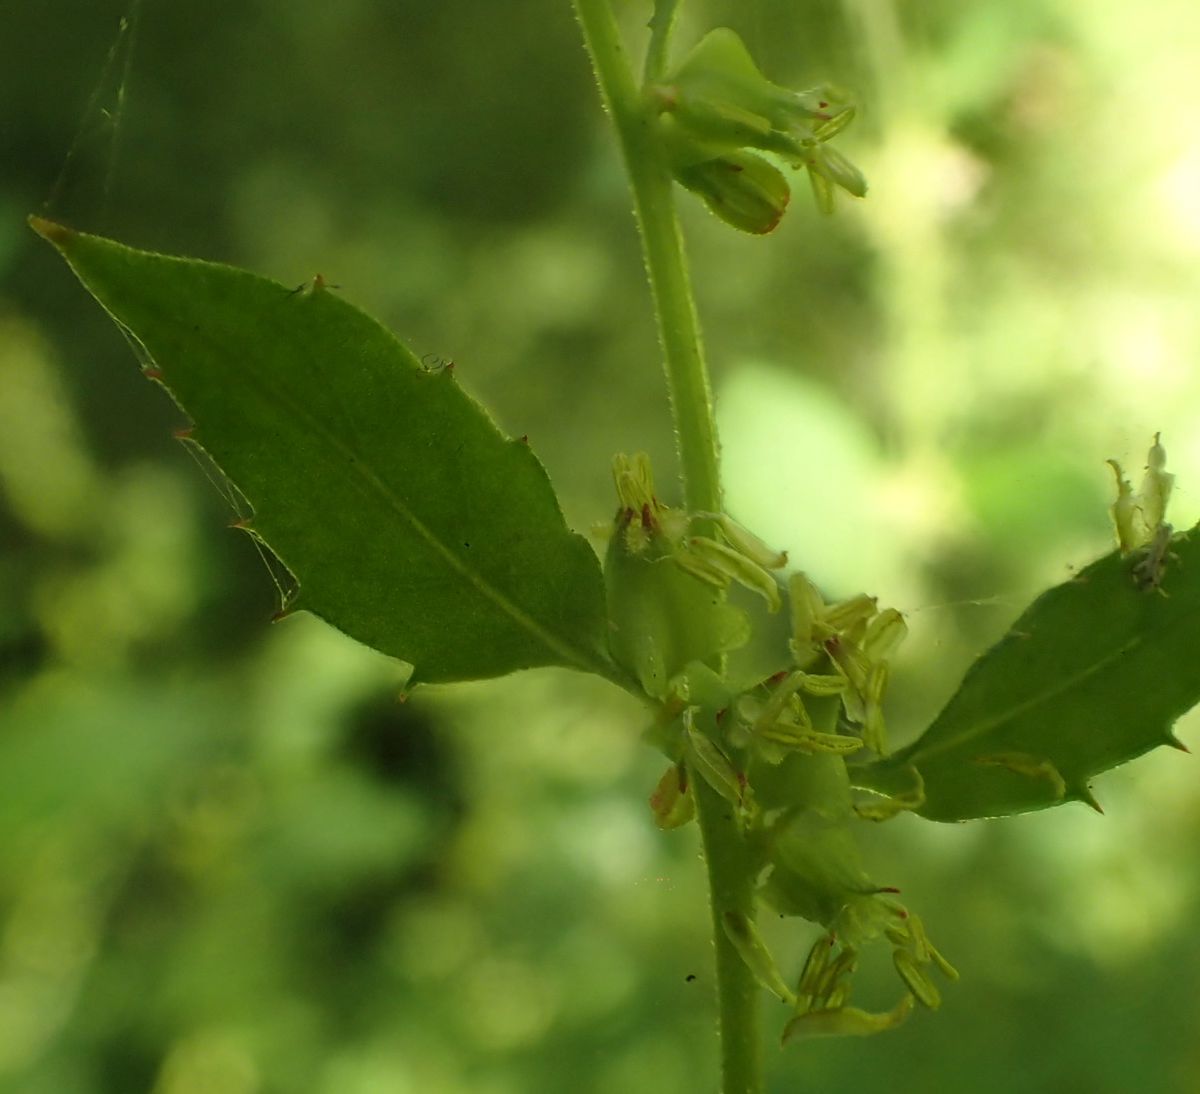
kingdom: Plantae
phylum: Tracheophyta
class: Magnoliopsida
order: Saxifragales
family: Haloragaceae
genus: Haloragis
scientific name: Haloragis erecta
